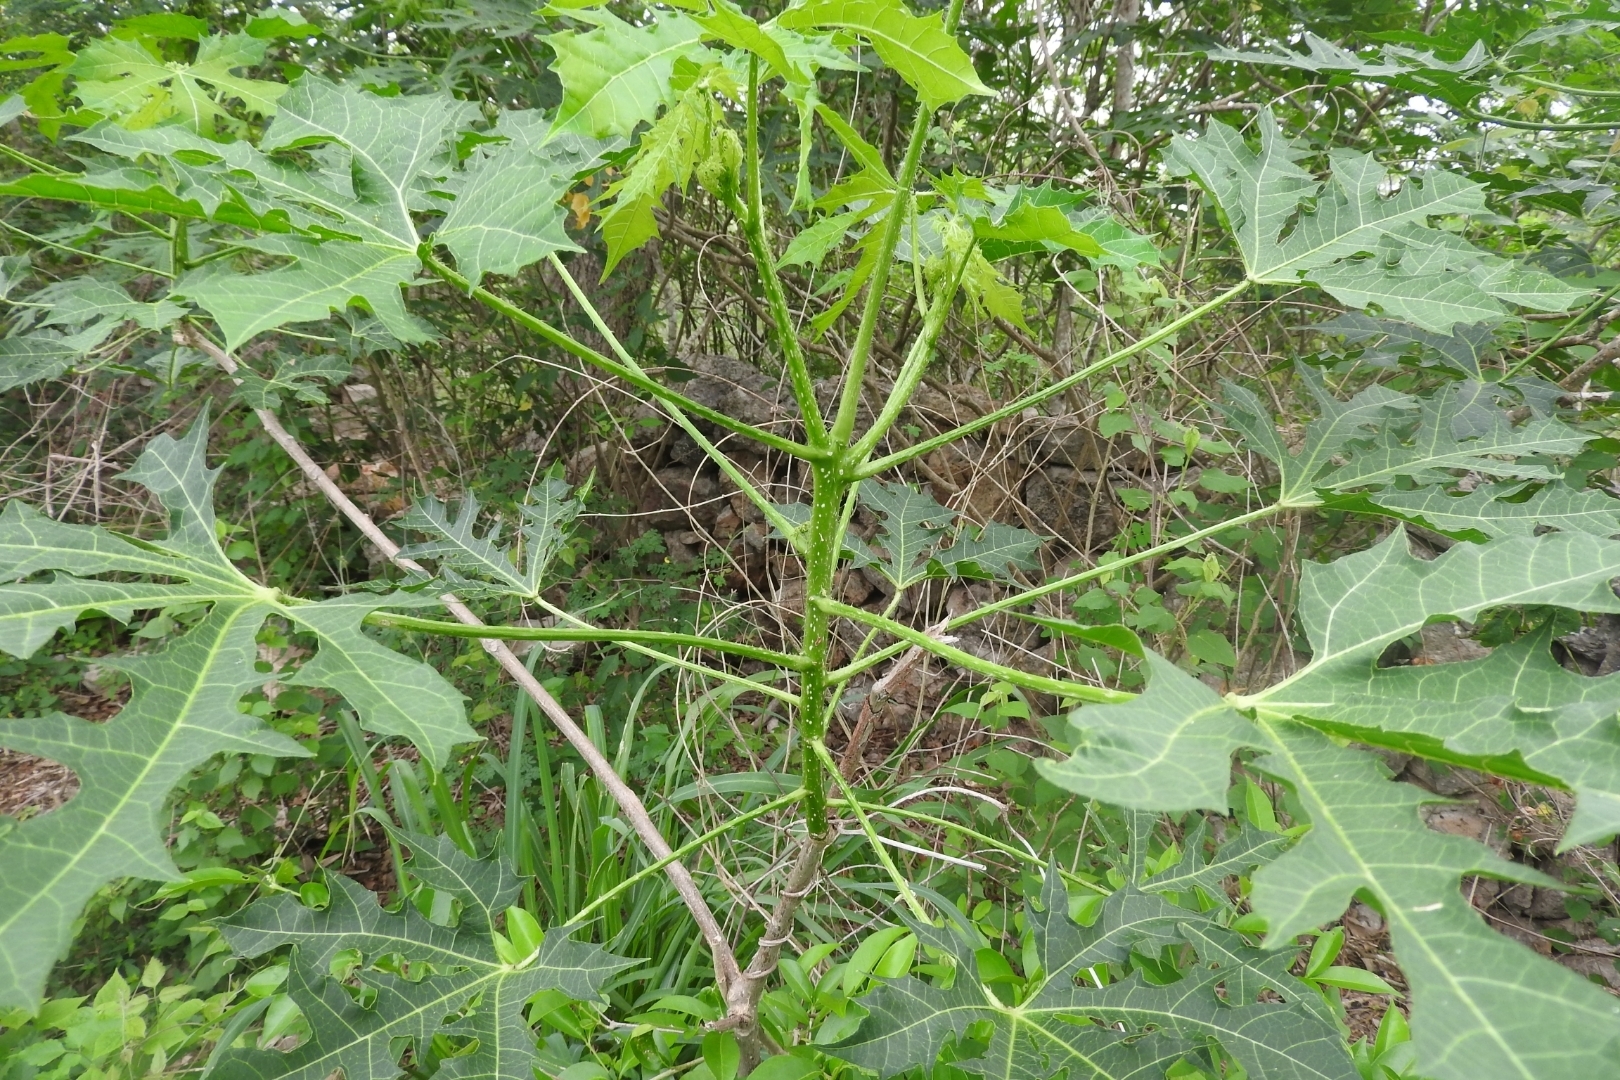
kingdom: Plantae
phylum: Tracheophyta
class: Magnoliopsida
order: Malpighiales
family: Euphorbiaceae
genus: Cnidoscolus
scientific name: Cnidoscolus aconitifolius
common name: Cabbage-star
